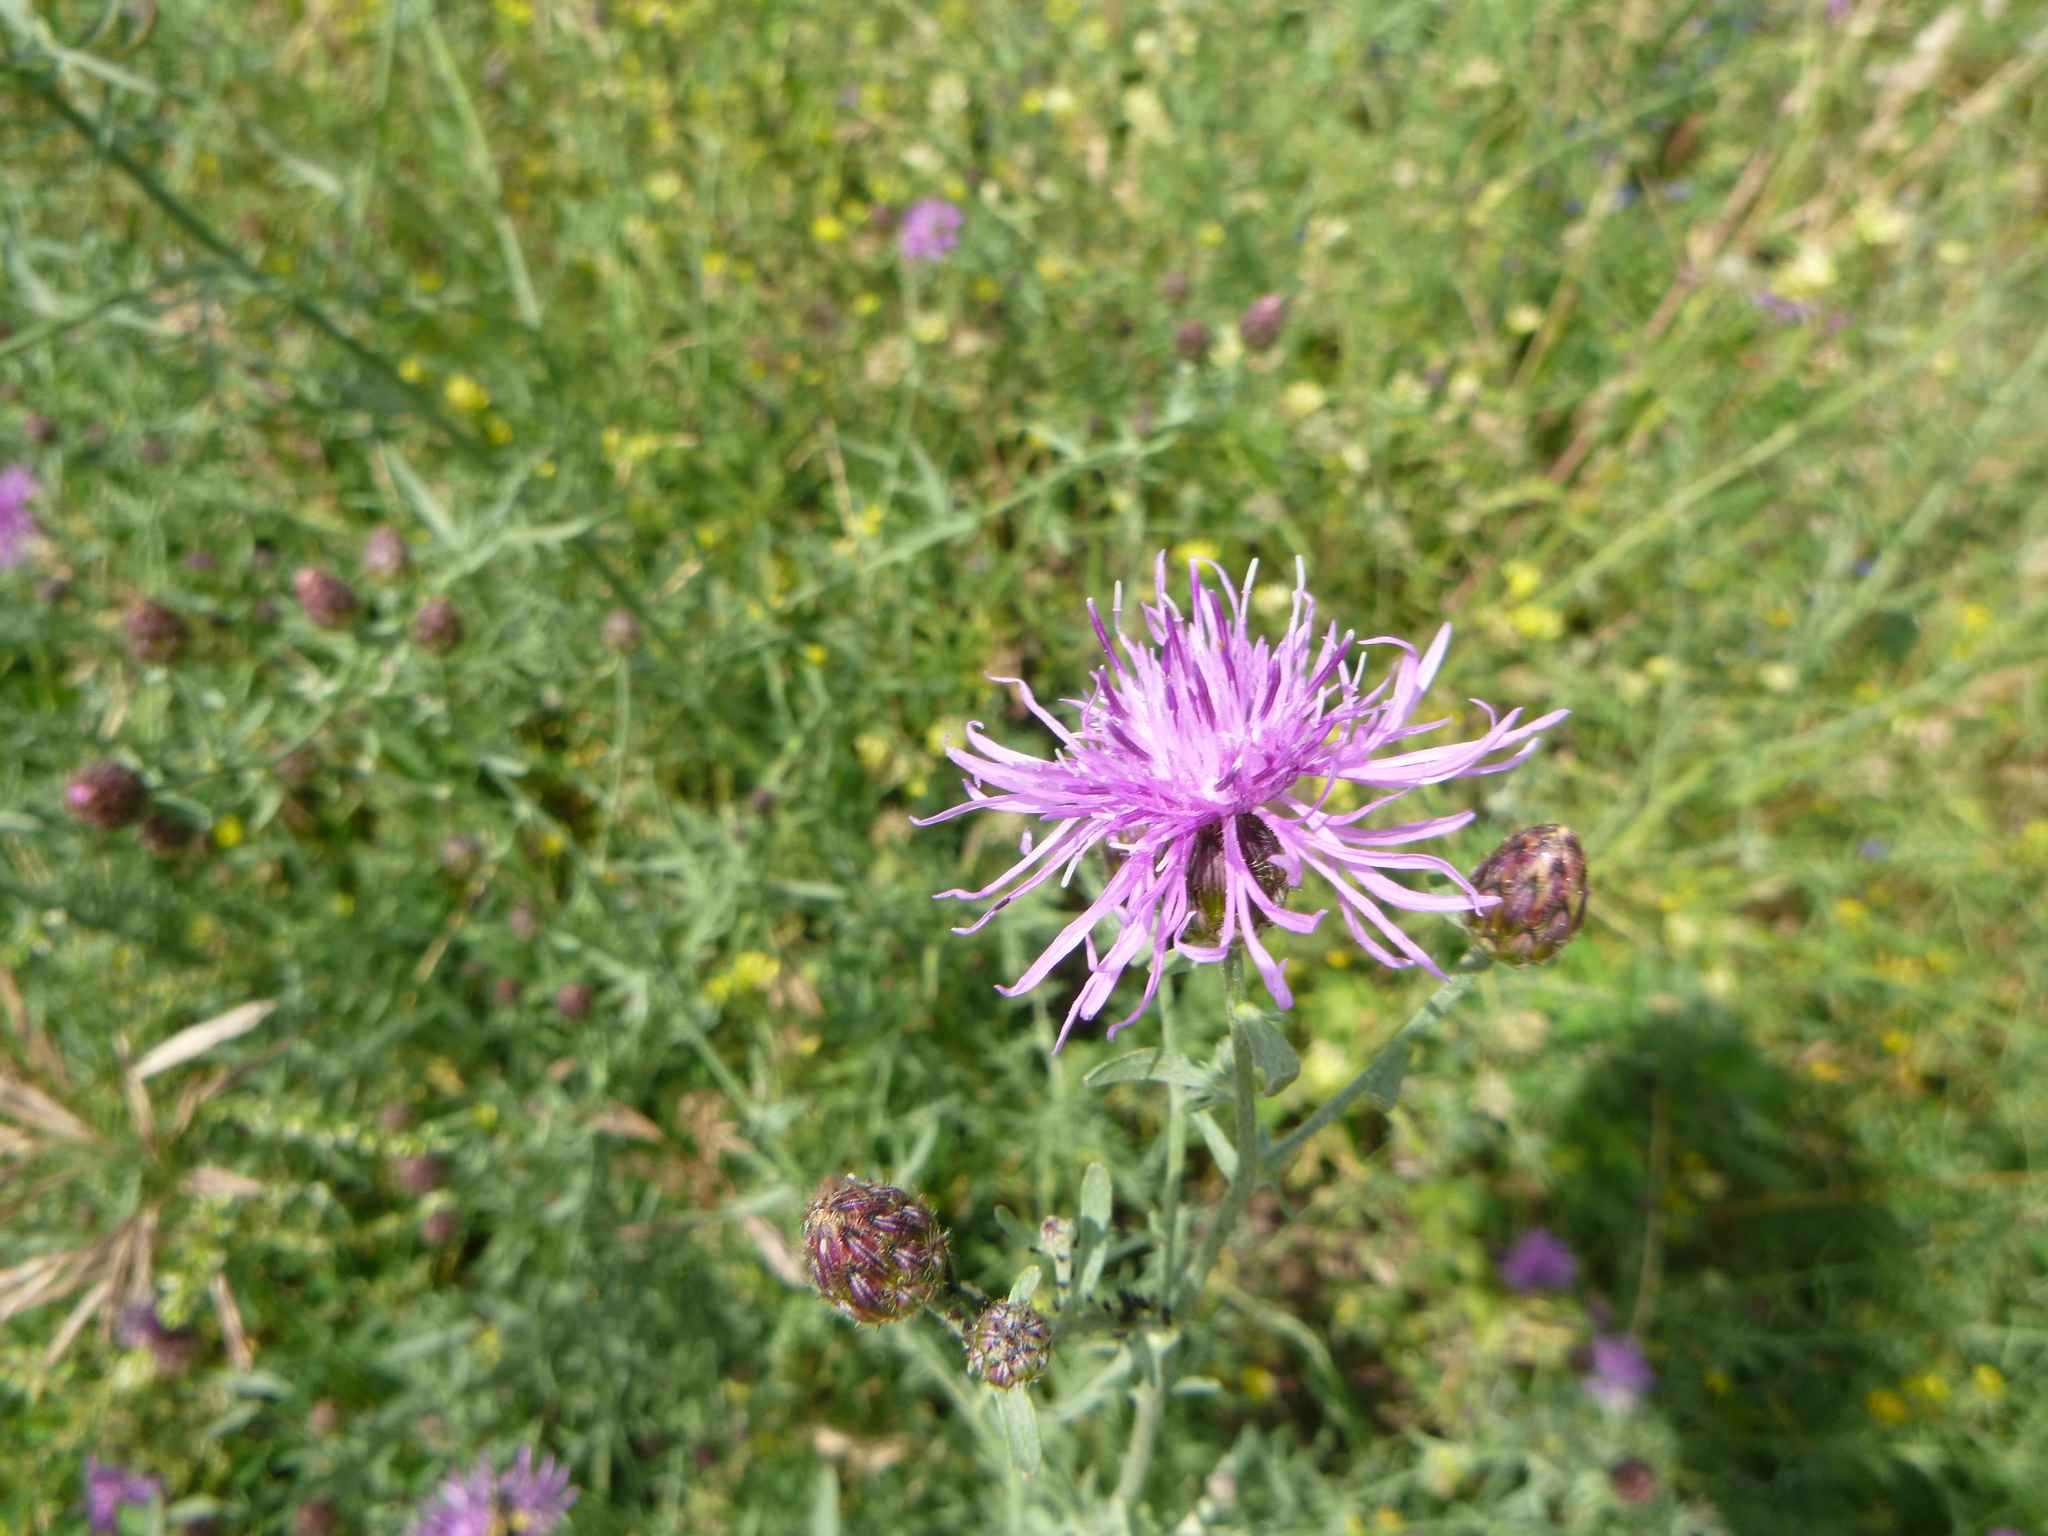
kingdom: Plantae
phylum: Tracheophyta
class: Magnoliopsida
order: Asterales
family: Asteraceae
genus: Centaurea
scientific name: Centaurea stoebe
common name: Spotted knapweed
